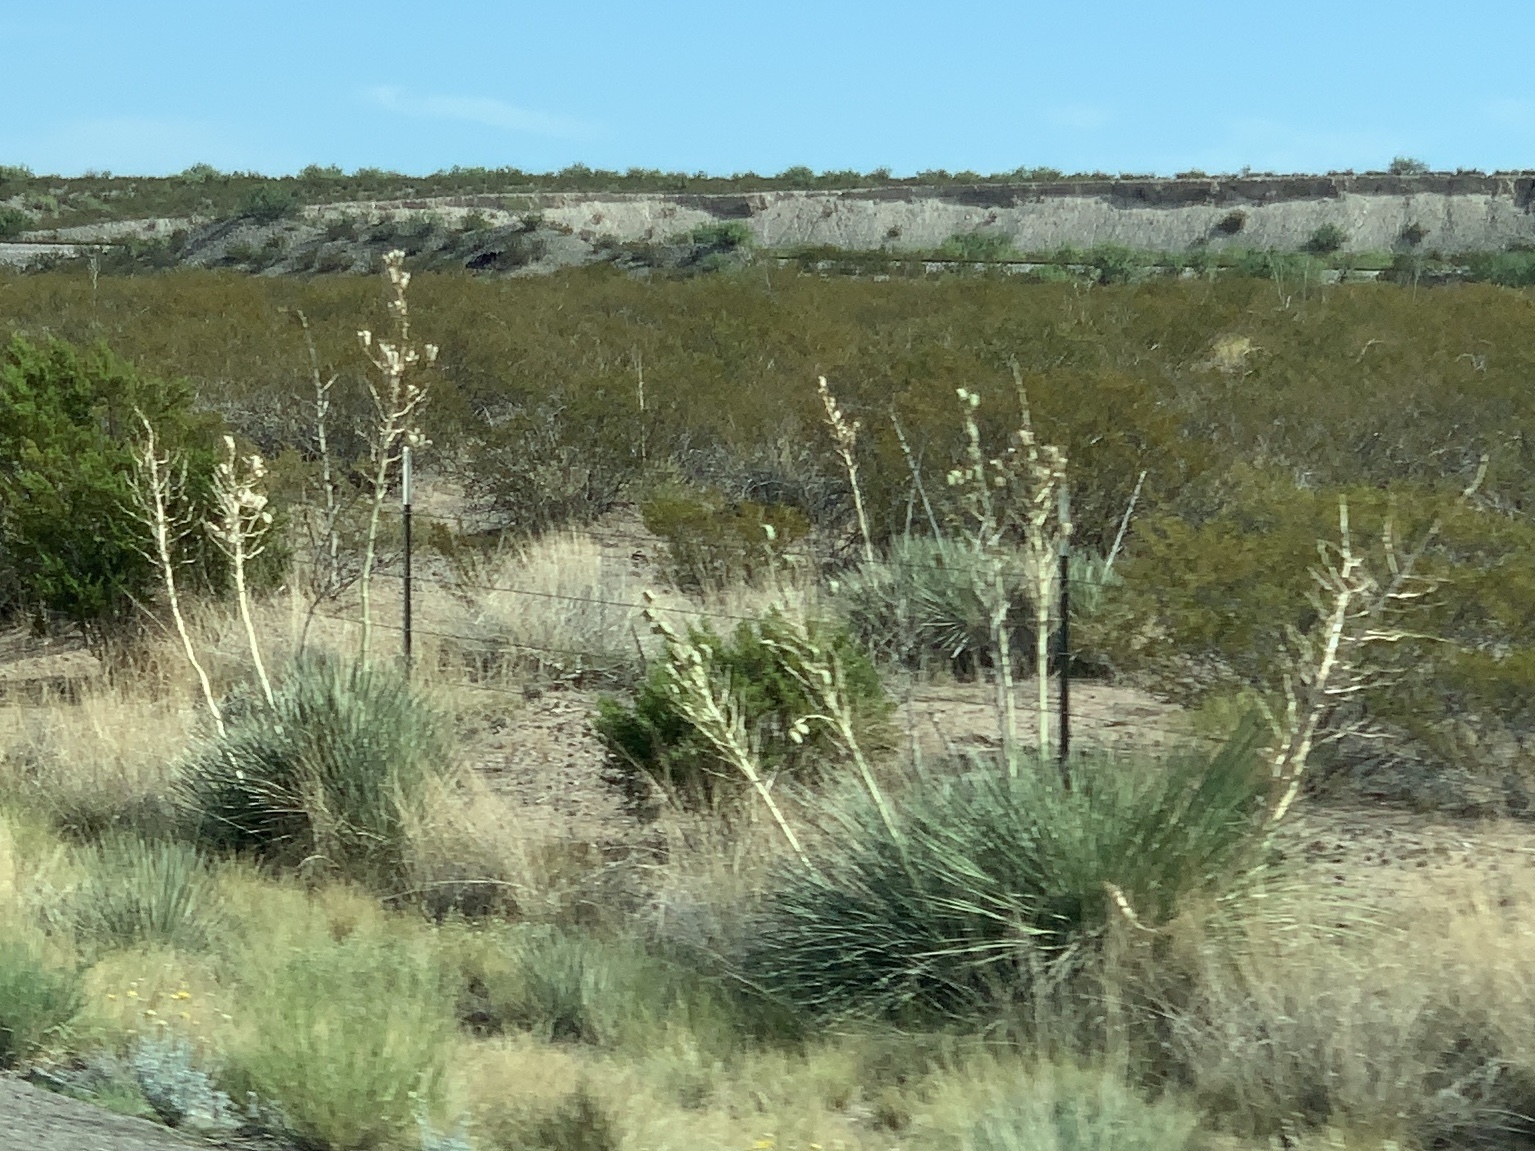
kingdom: Plantae
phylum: Tracheophyta
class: Liliopsida
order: Asparagales
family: Asparagaceae
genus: Yucca
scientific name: Yucca elata
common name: Palmella
